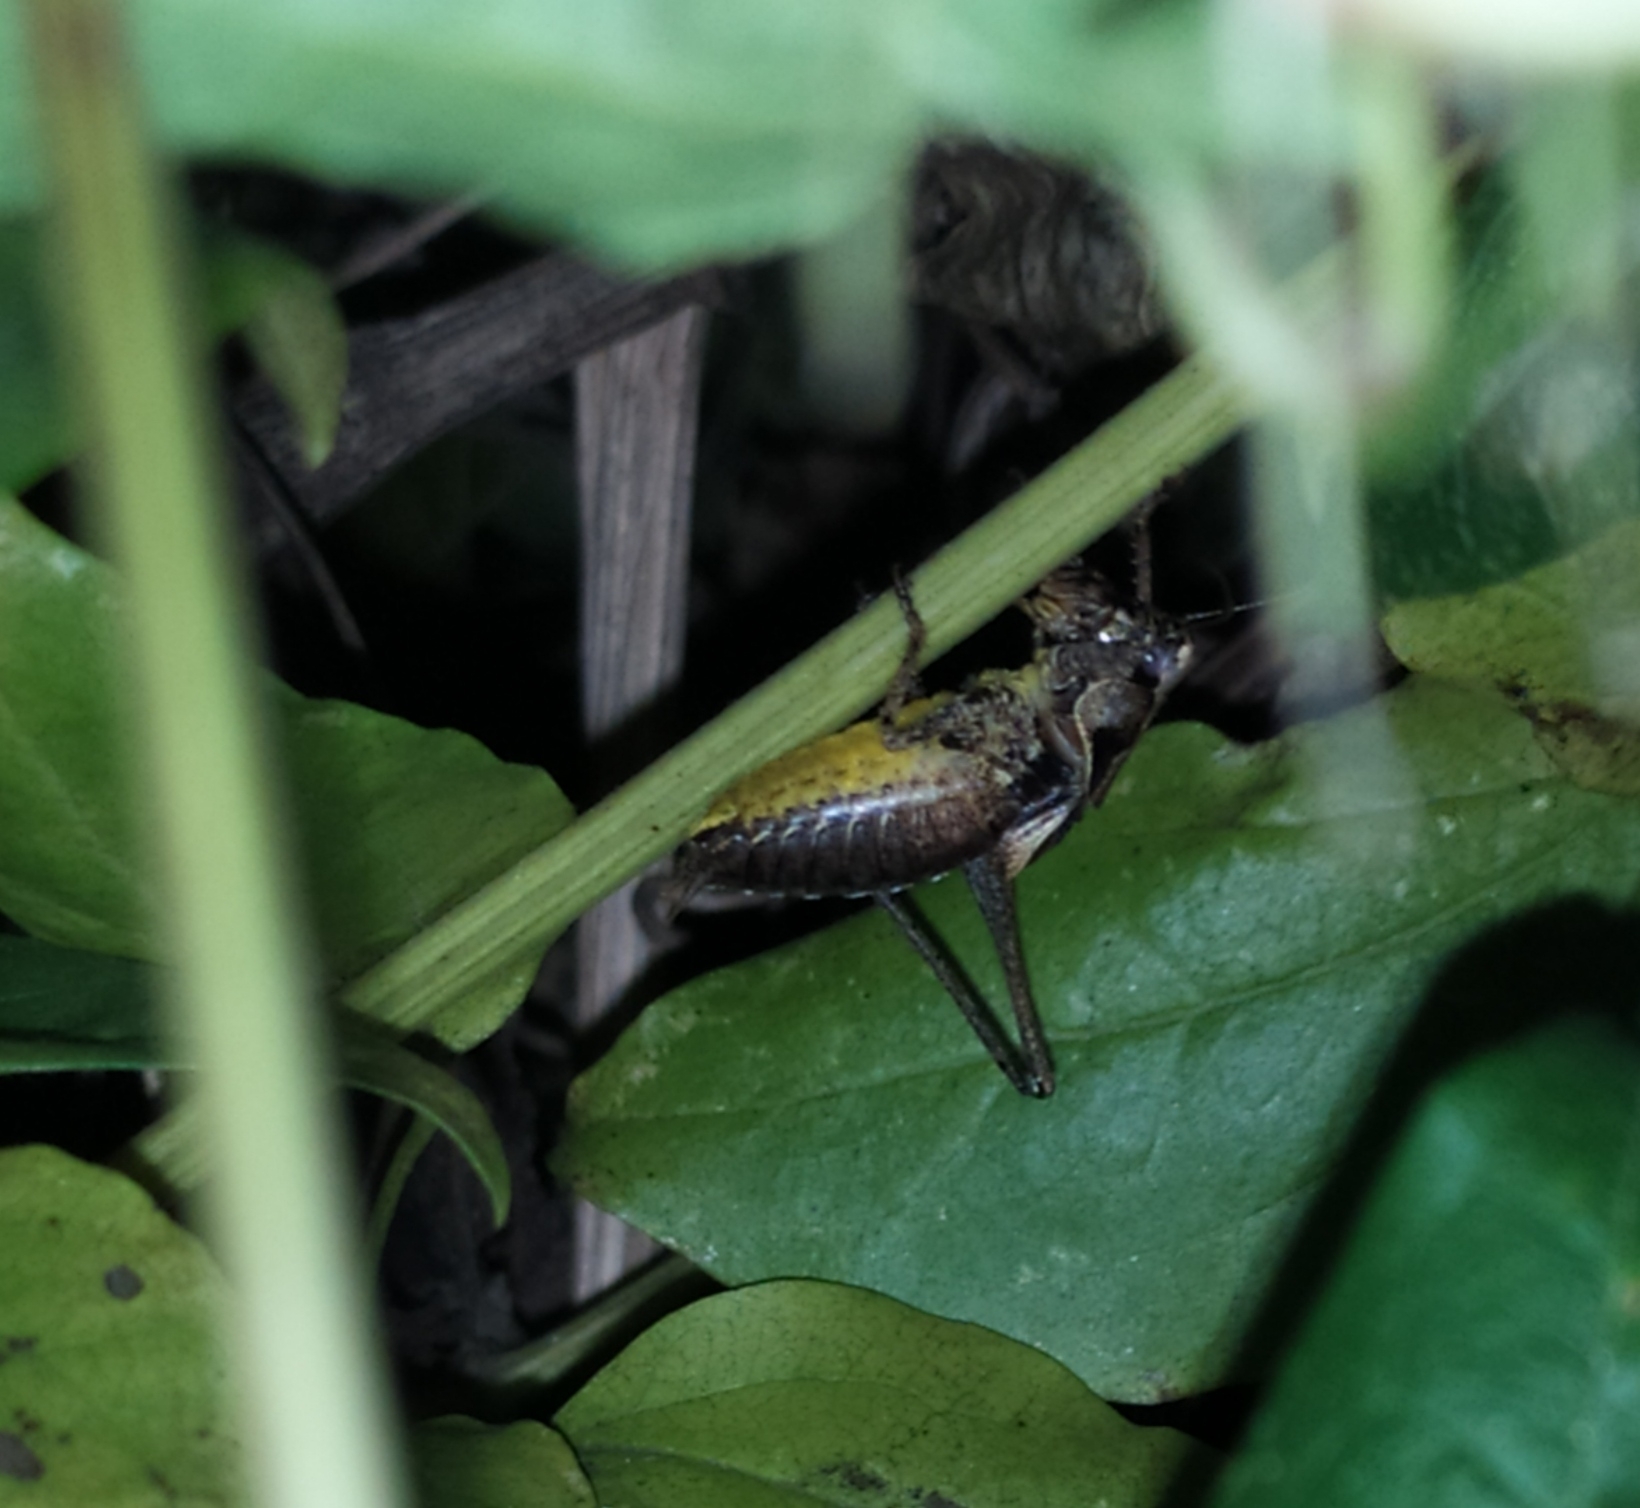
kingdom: Animalia
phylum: Arthropoda
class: Insecta
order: Orthoptera
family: Tettigoniidae
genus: Pholidoptera
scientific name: Pholidoptera griseoaptera
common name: Dark bush-cricket
